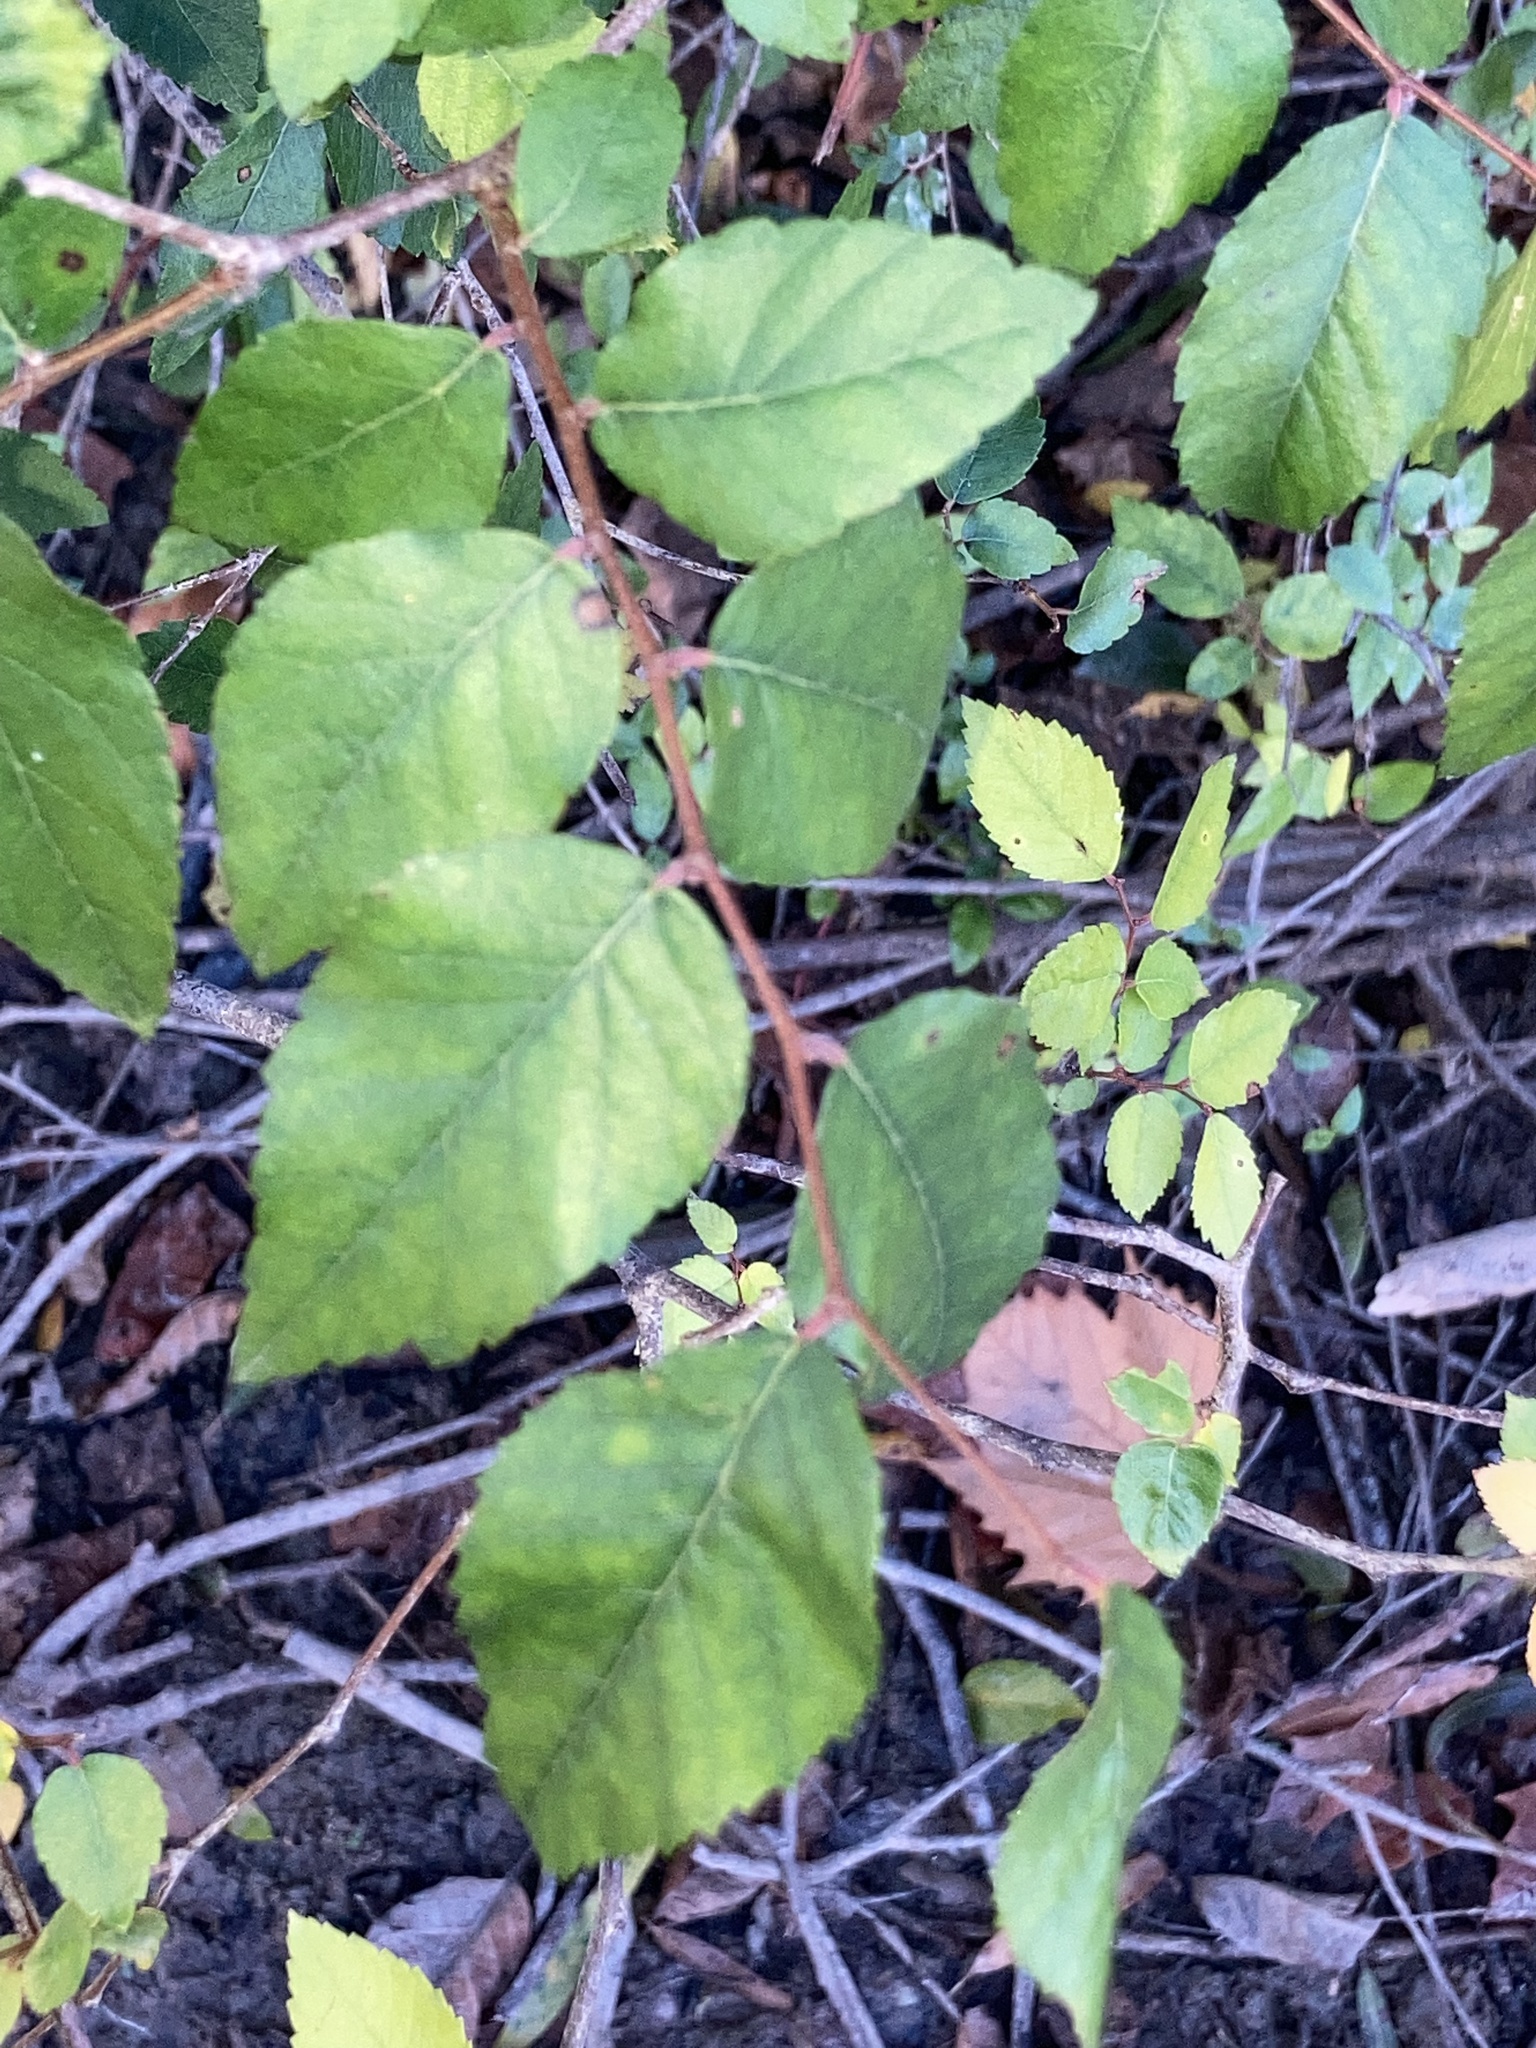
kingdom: Plantae
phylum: Tracheophyta
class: Magnoliopsida
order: Rosales
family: Ulmaceae
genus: Planera
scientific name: Planera aquatica
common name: Water-elm
